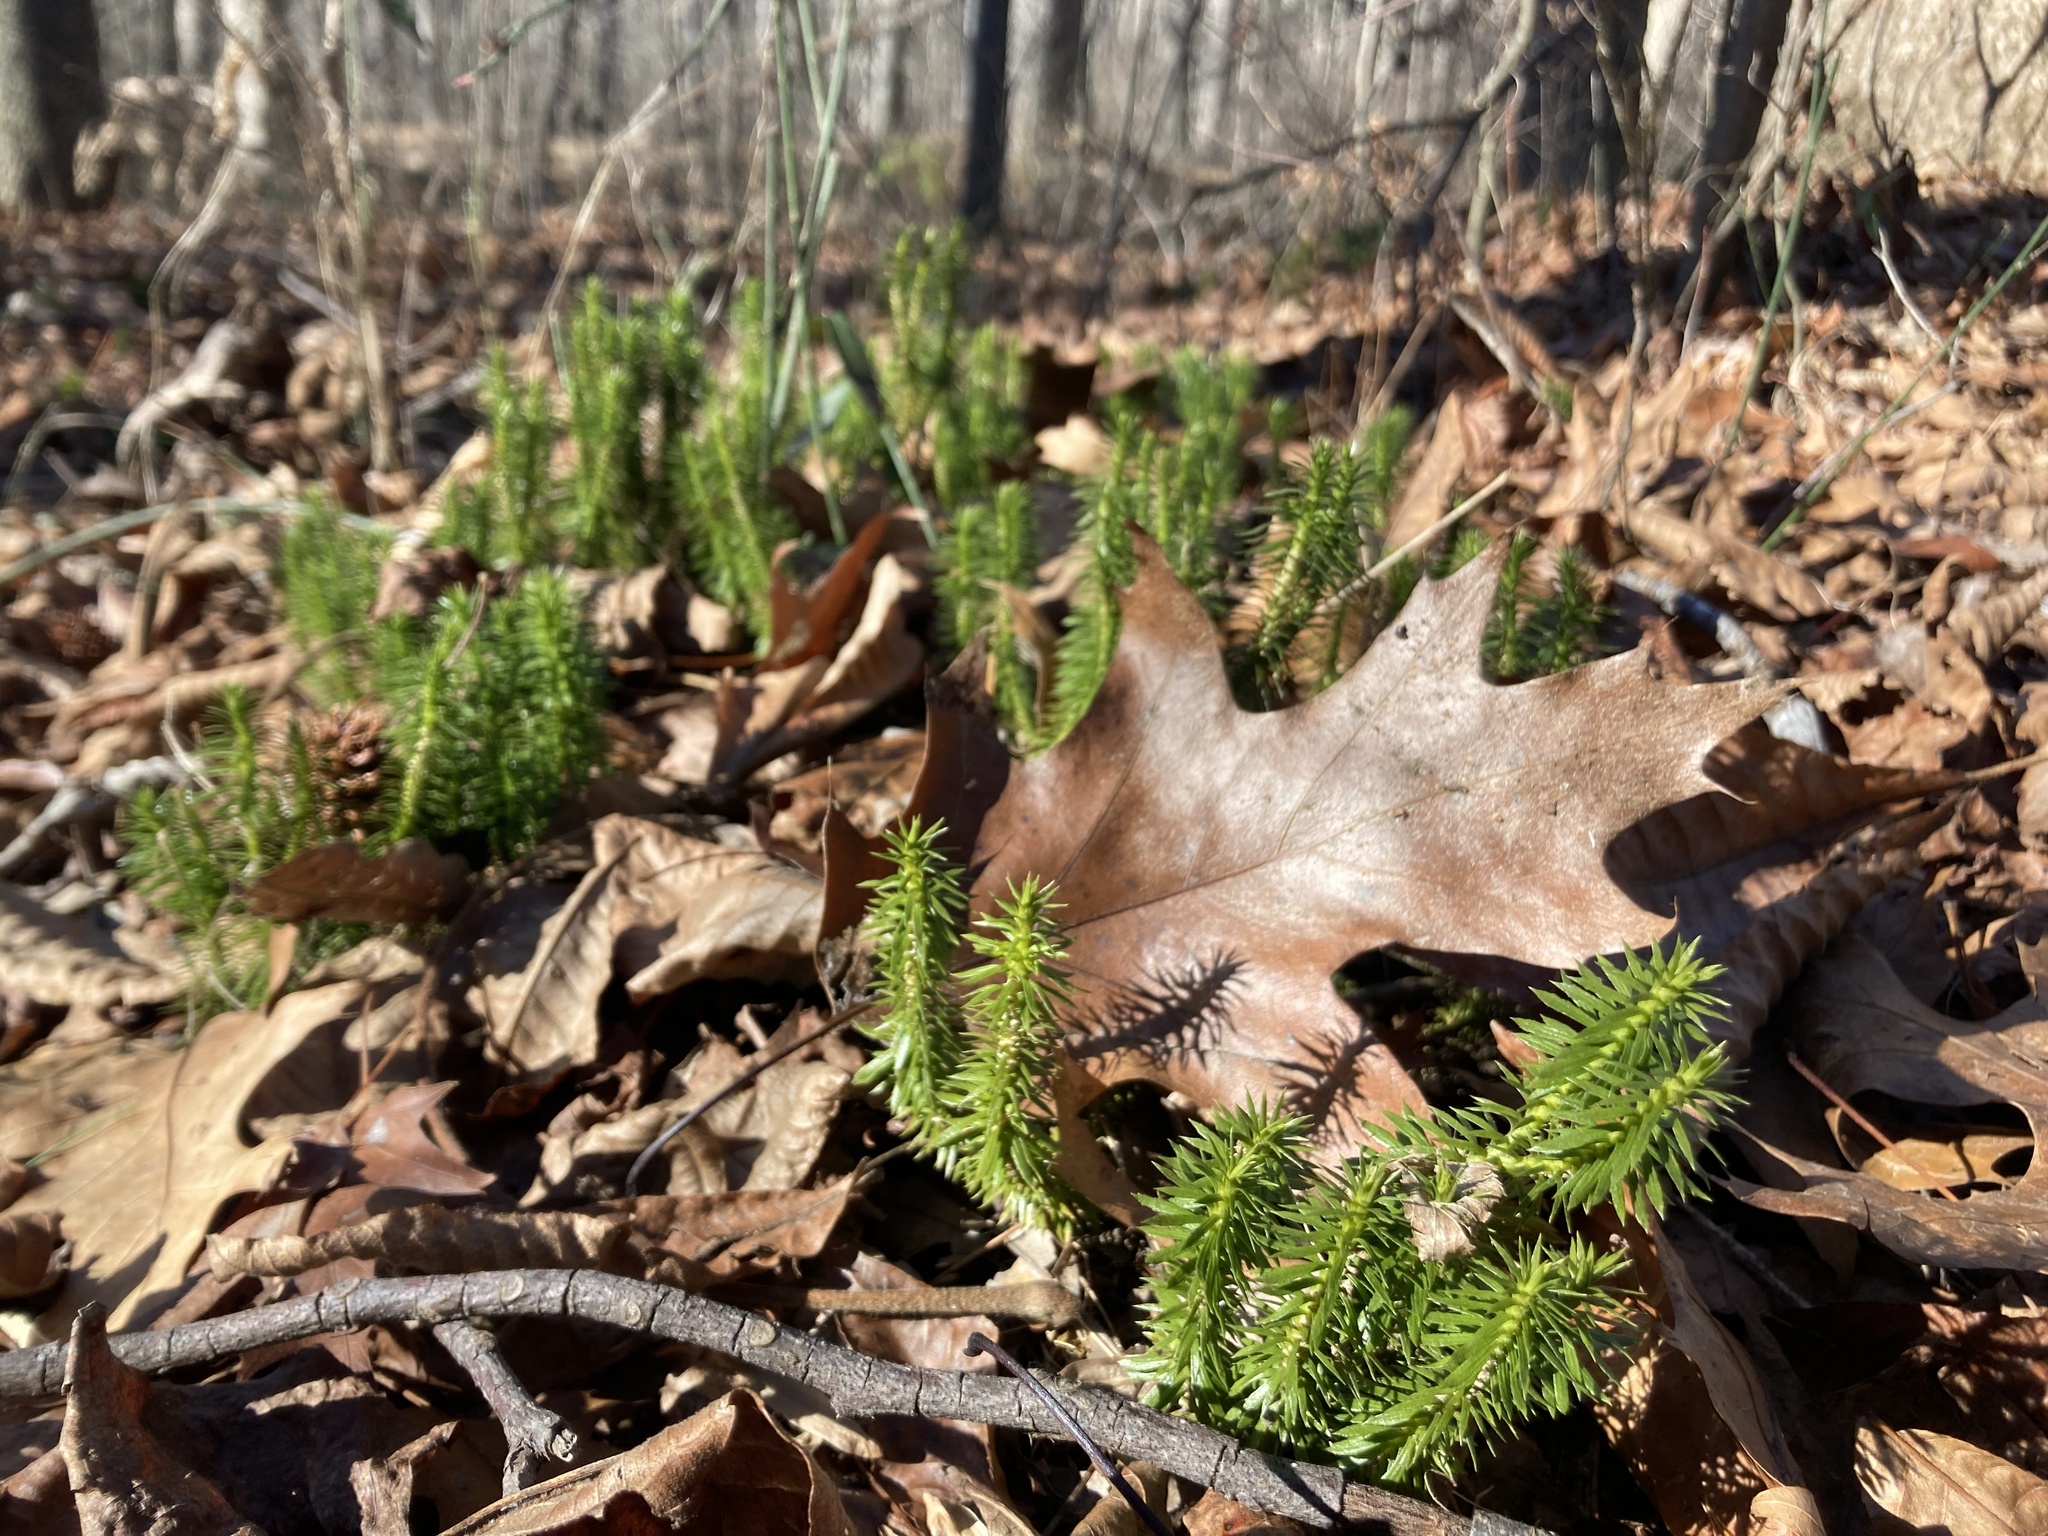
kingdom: Plantae
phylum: Tracheophyta
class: Lycopodiopsida
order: Lycopodiales
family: Lycopodiaceae
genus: Huperzia
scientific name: Huperzia lucidula
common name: Shining clubmoss
